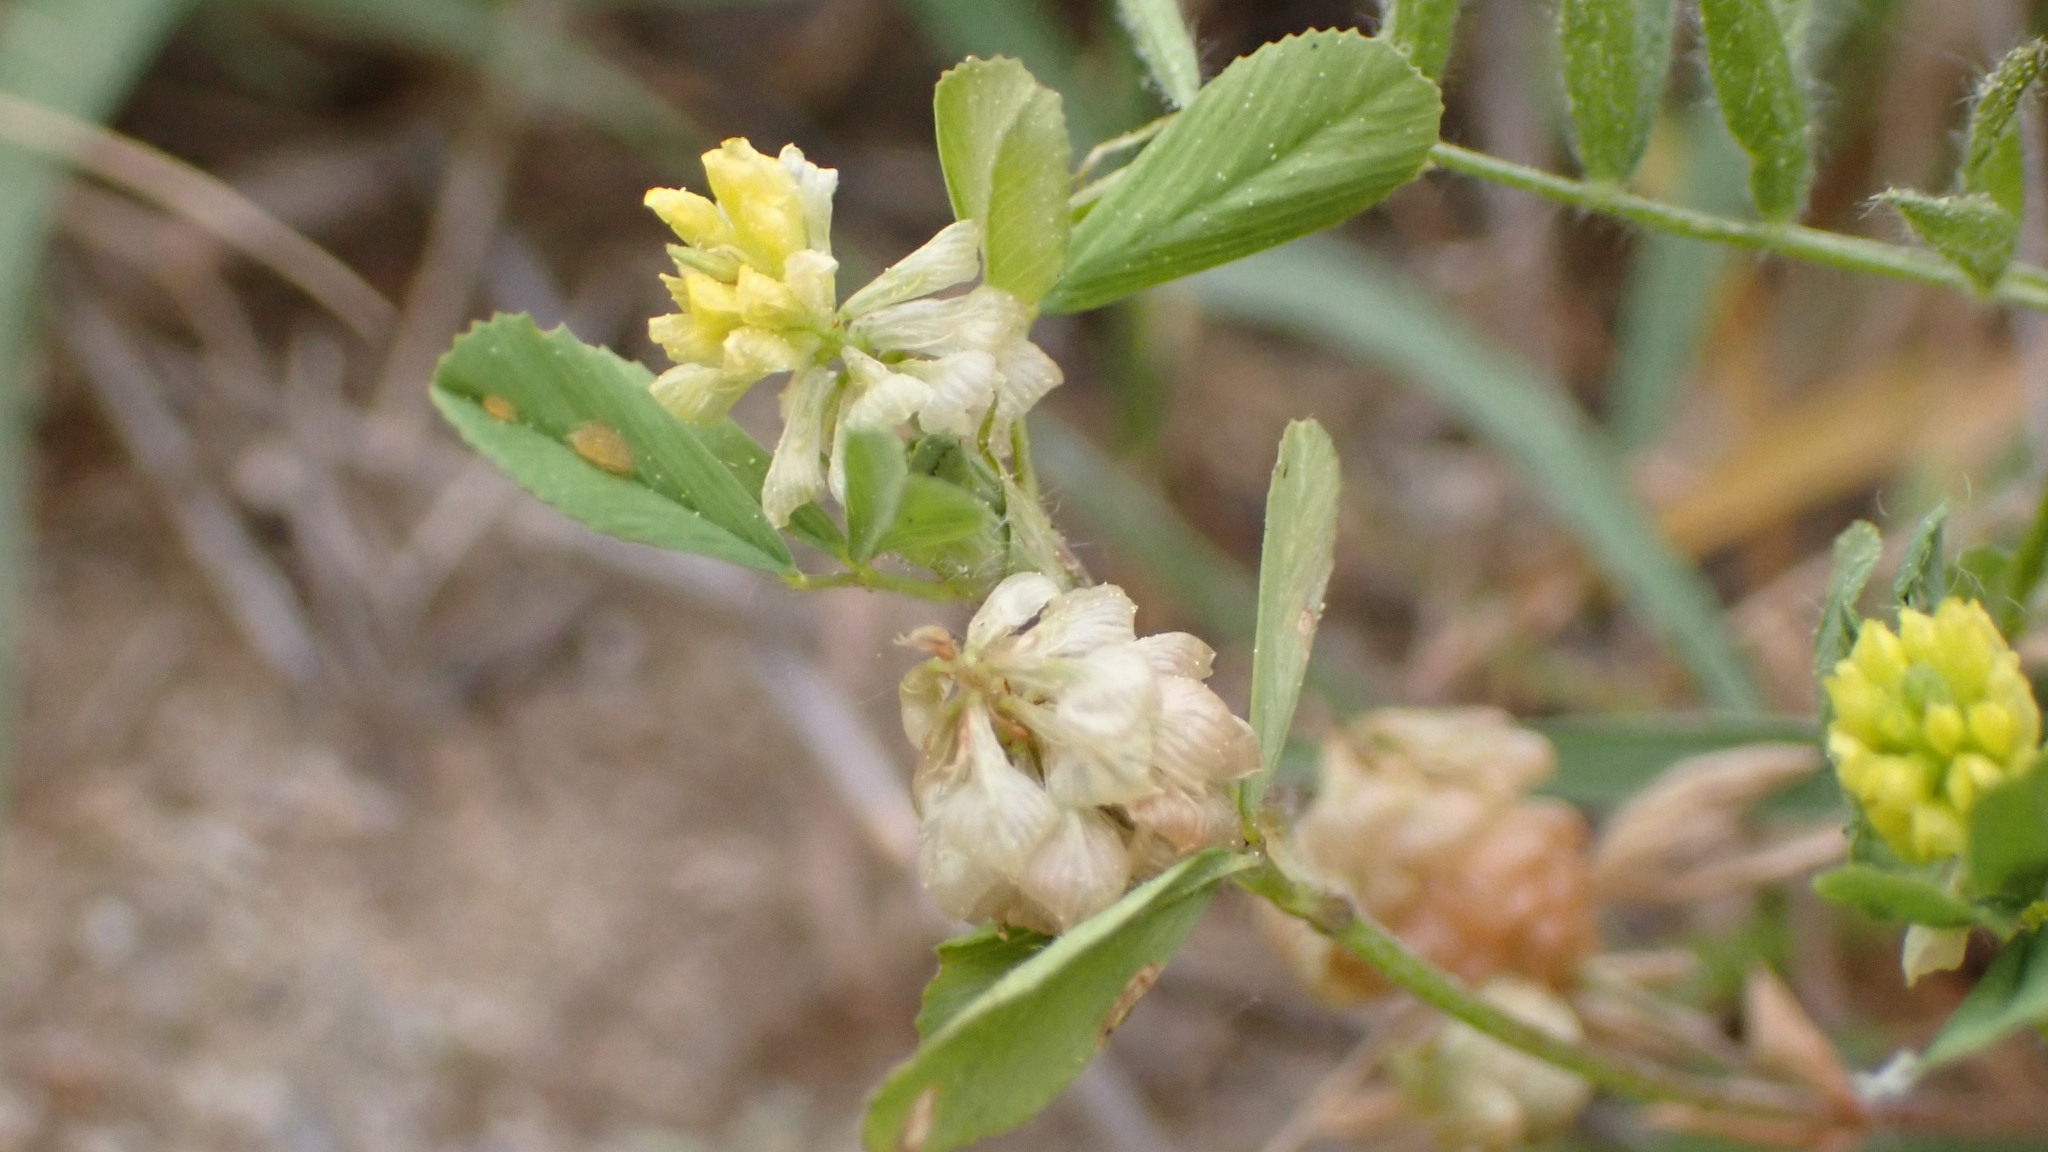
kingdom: Plantae
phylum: Tracheophyta
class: Magnoliopsida
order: Fabales
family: Fabaceae
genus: Trifolium
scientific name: Trifolium campestre
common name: Field clover
